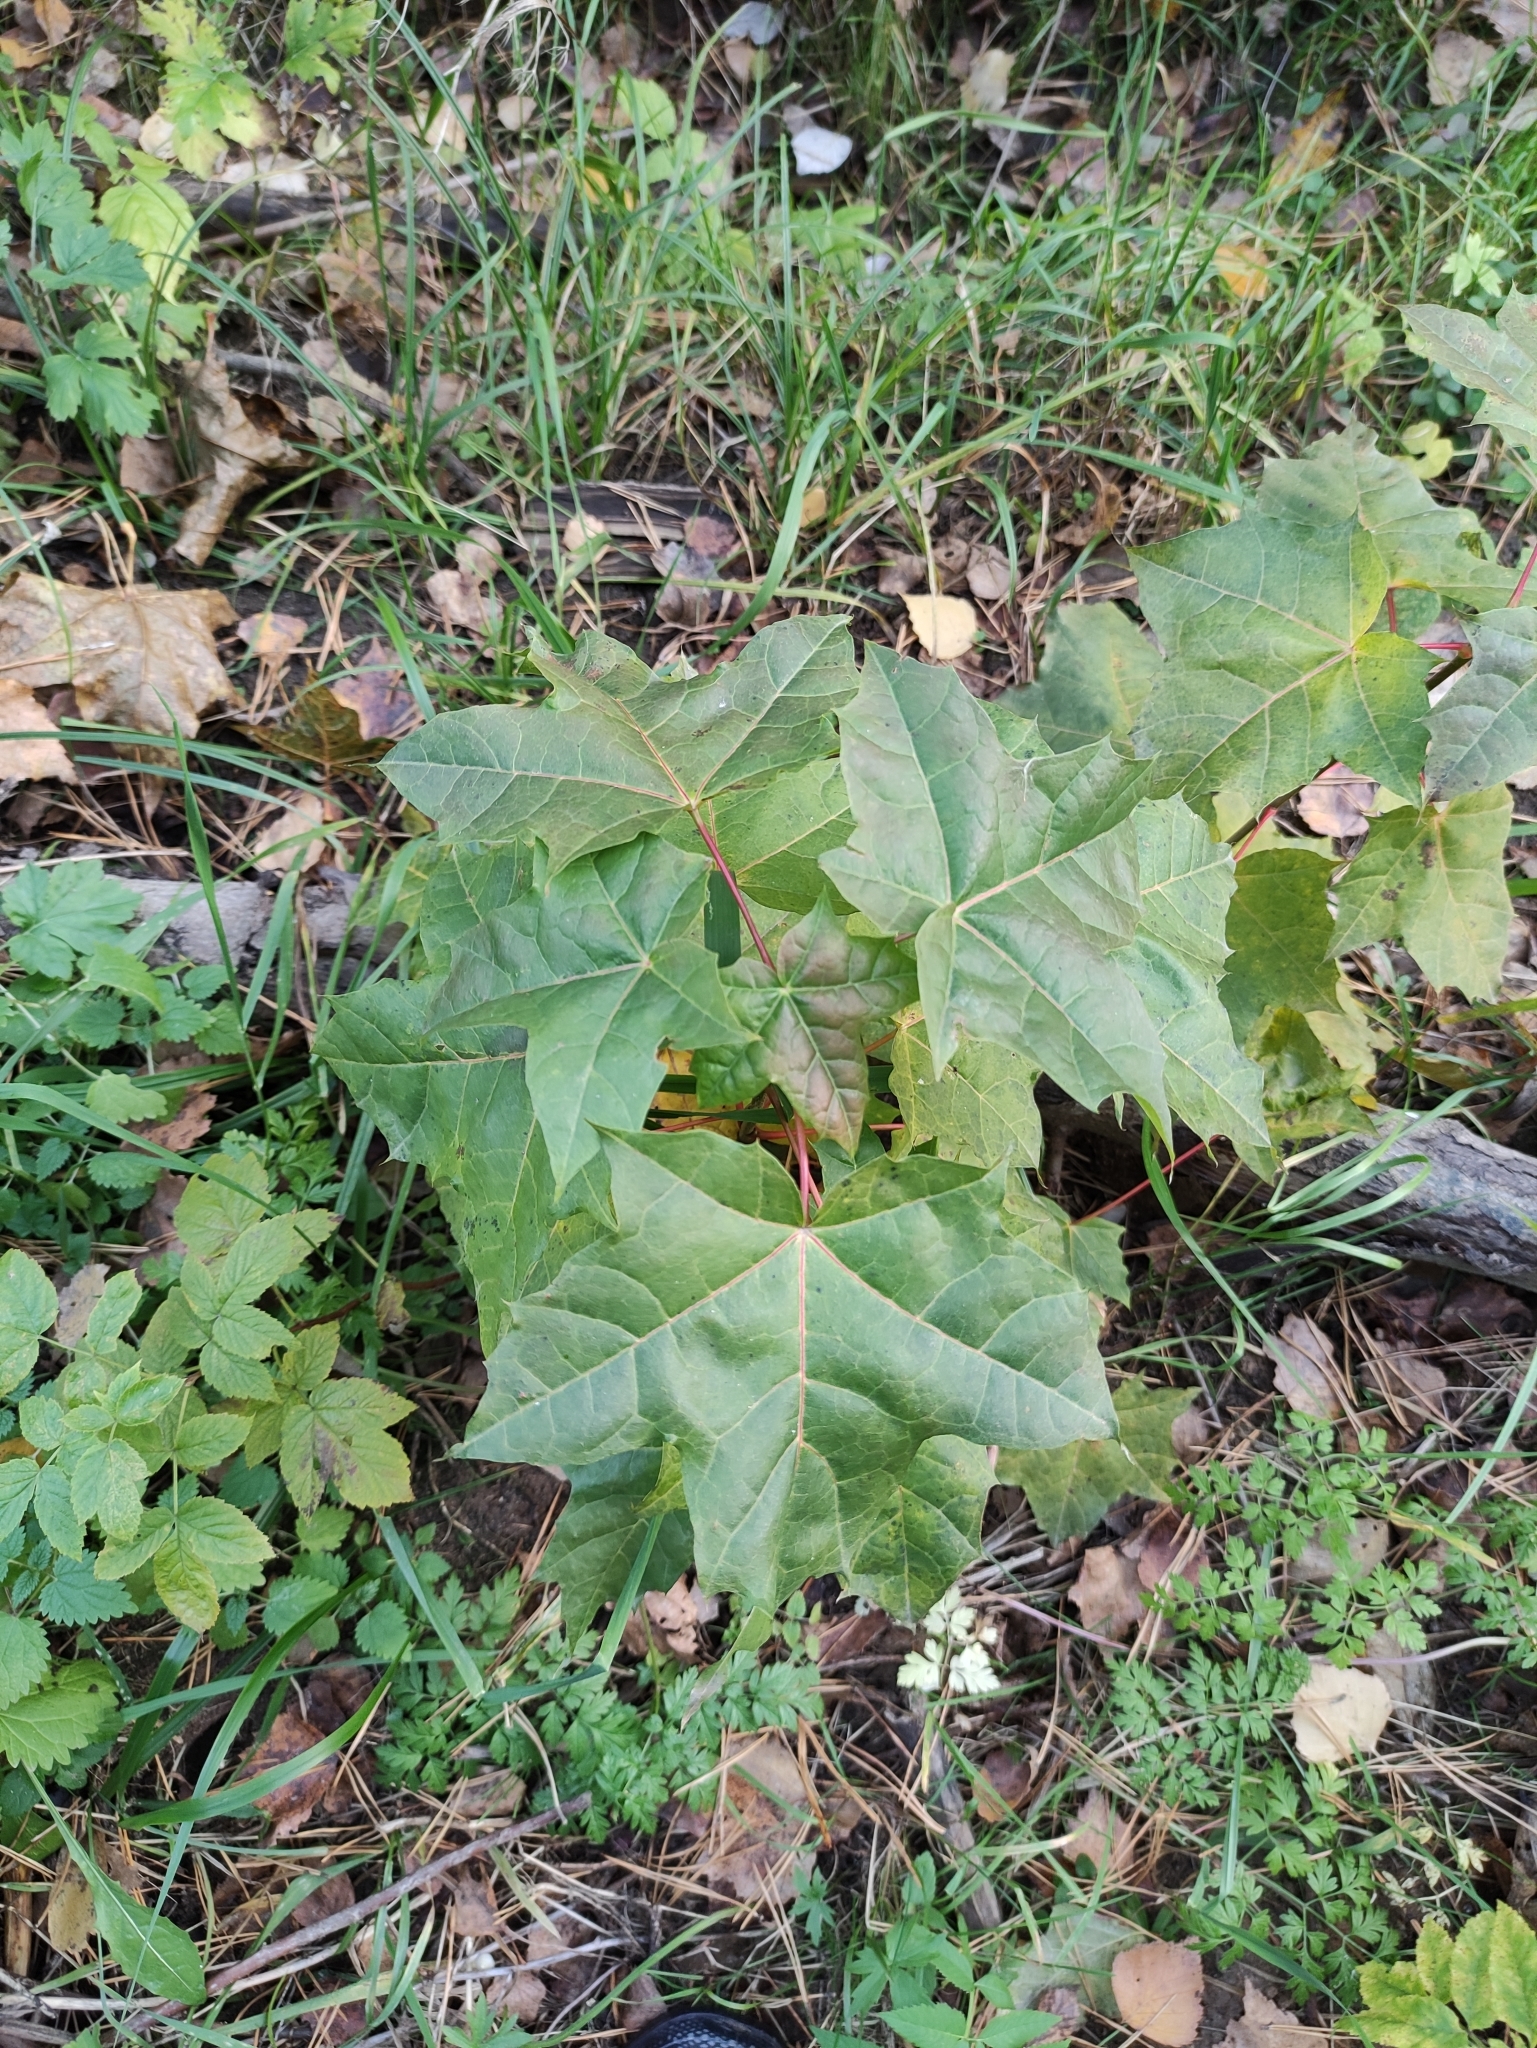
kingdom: Plantae
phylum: Tracheophyta
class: Magnoliopsida
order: Sapindales
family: Sapindaceae
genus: Acer
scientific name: Acer platanoides
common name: Norway maple
